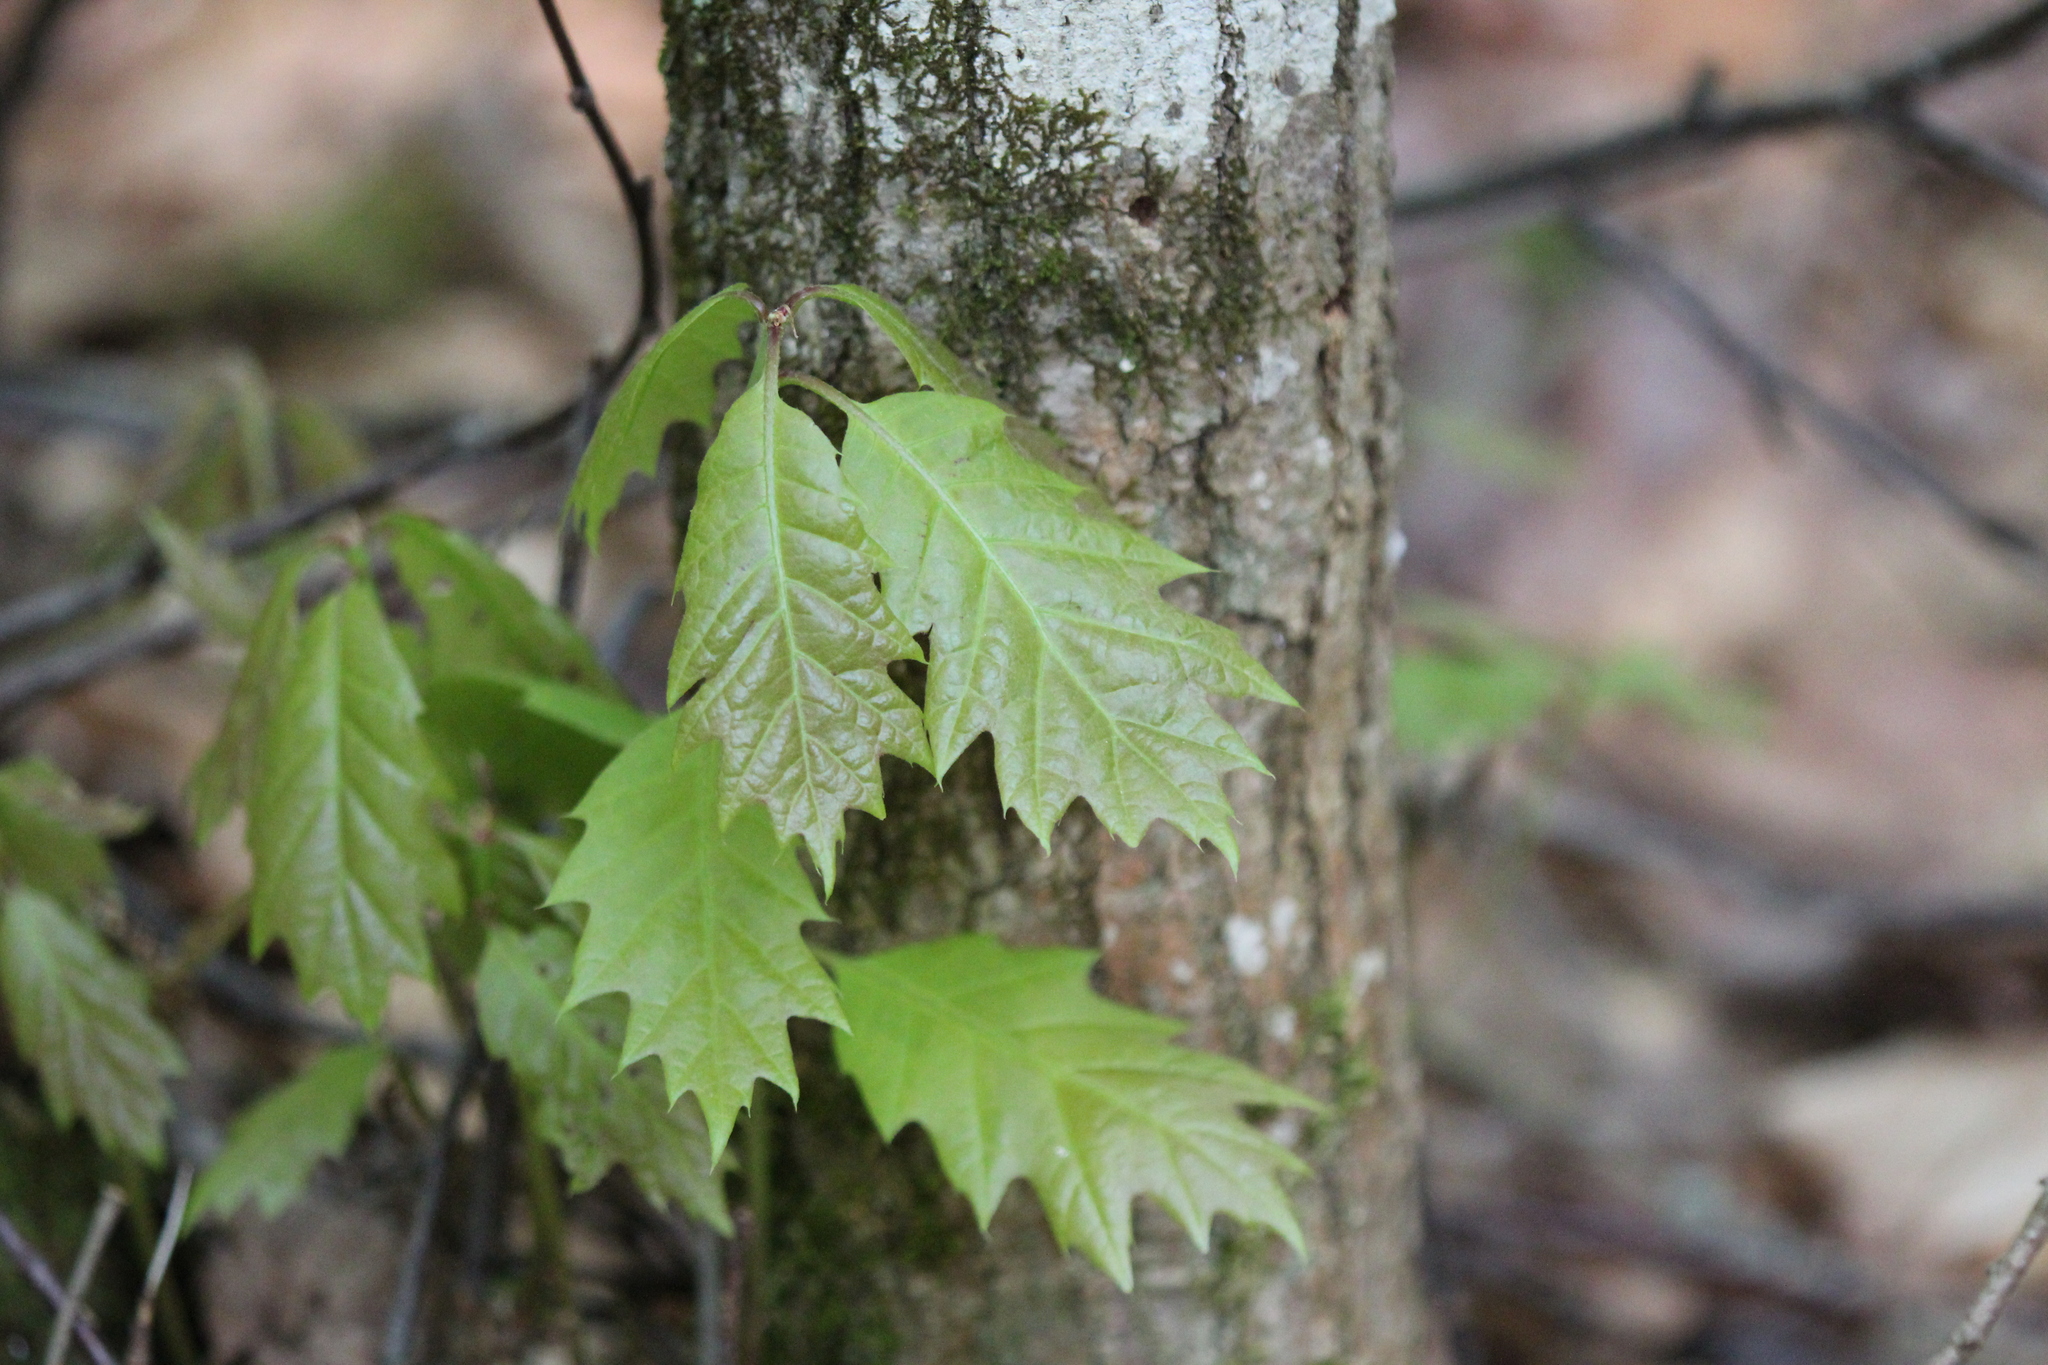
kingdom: Plantae
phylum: Tracheophyta
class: Magnoliopsida
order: Fagales
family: Fagaceae
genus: Quercus
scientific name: Quercus rubra
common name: Red oak
